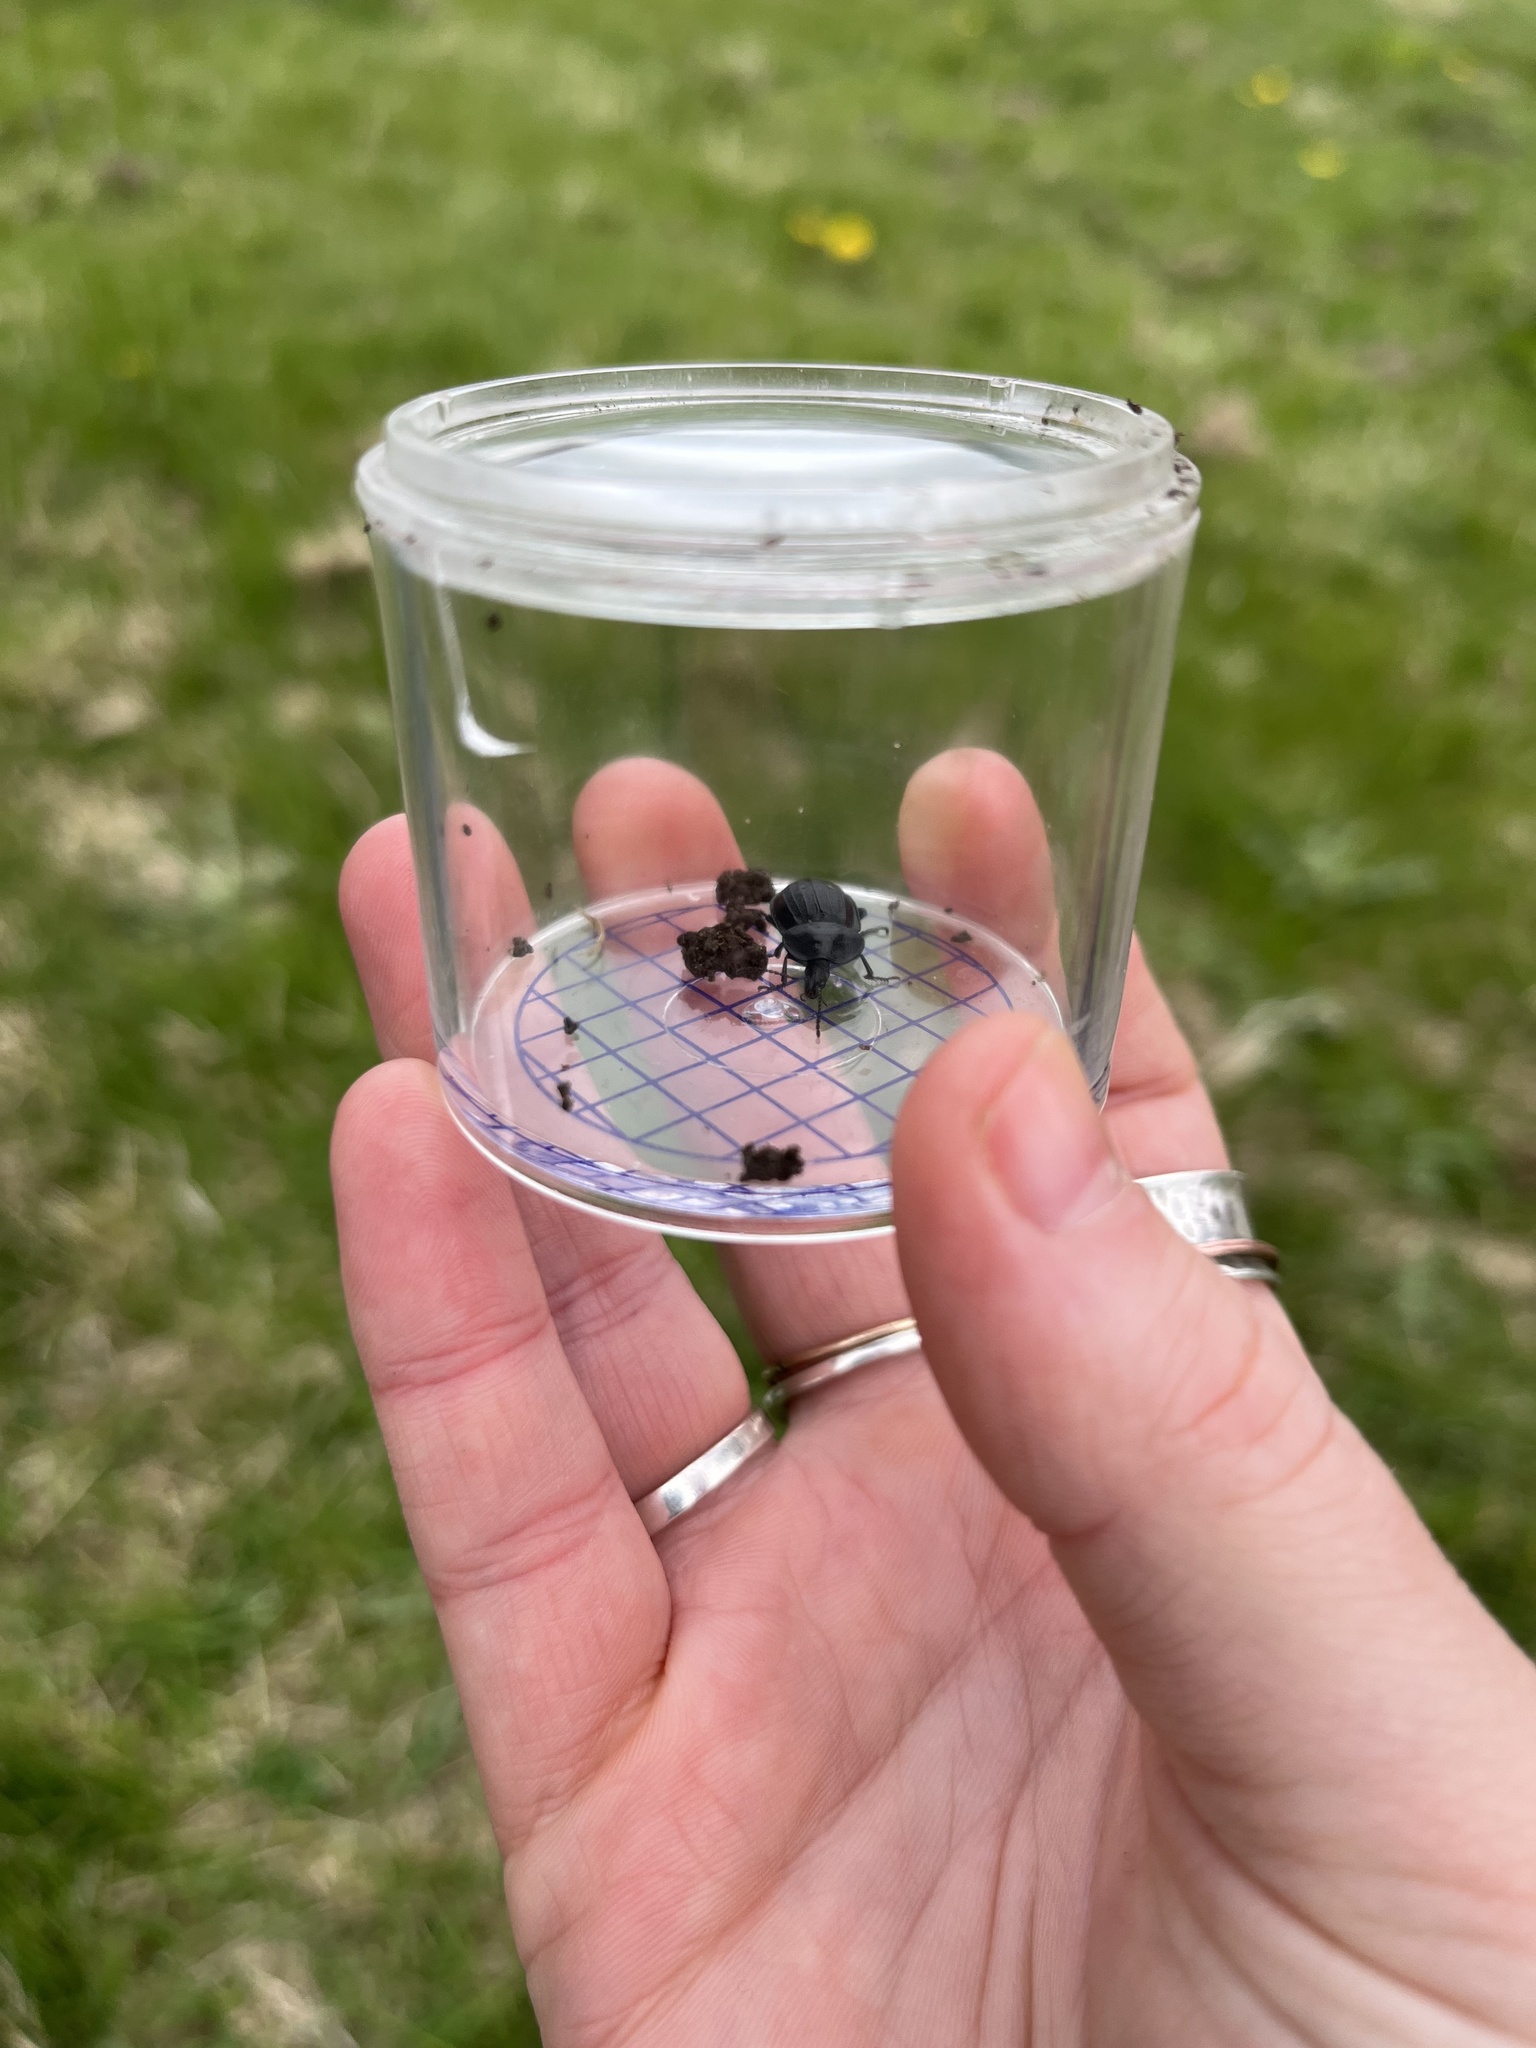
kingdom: Animalia
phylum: Arthropoda
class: Insecta
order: Coleoptera
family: Staphylinidae
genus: Silpha
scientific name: Silpha atrata
